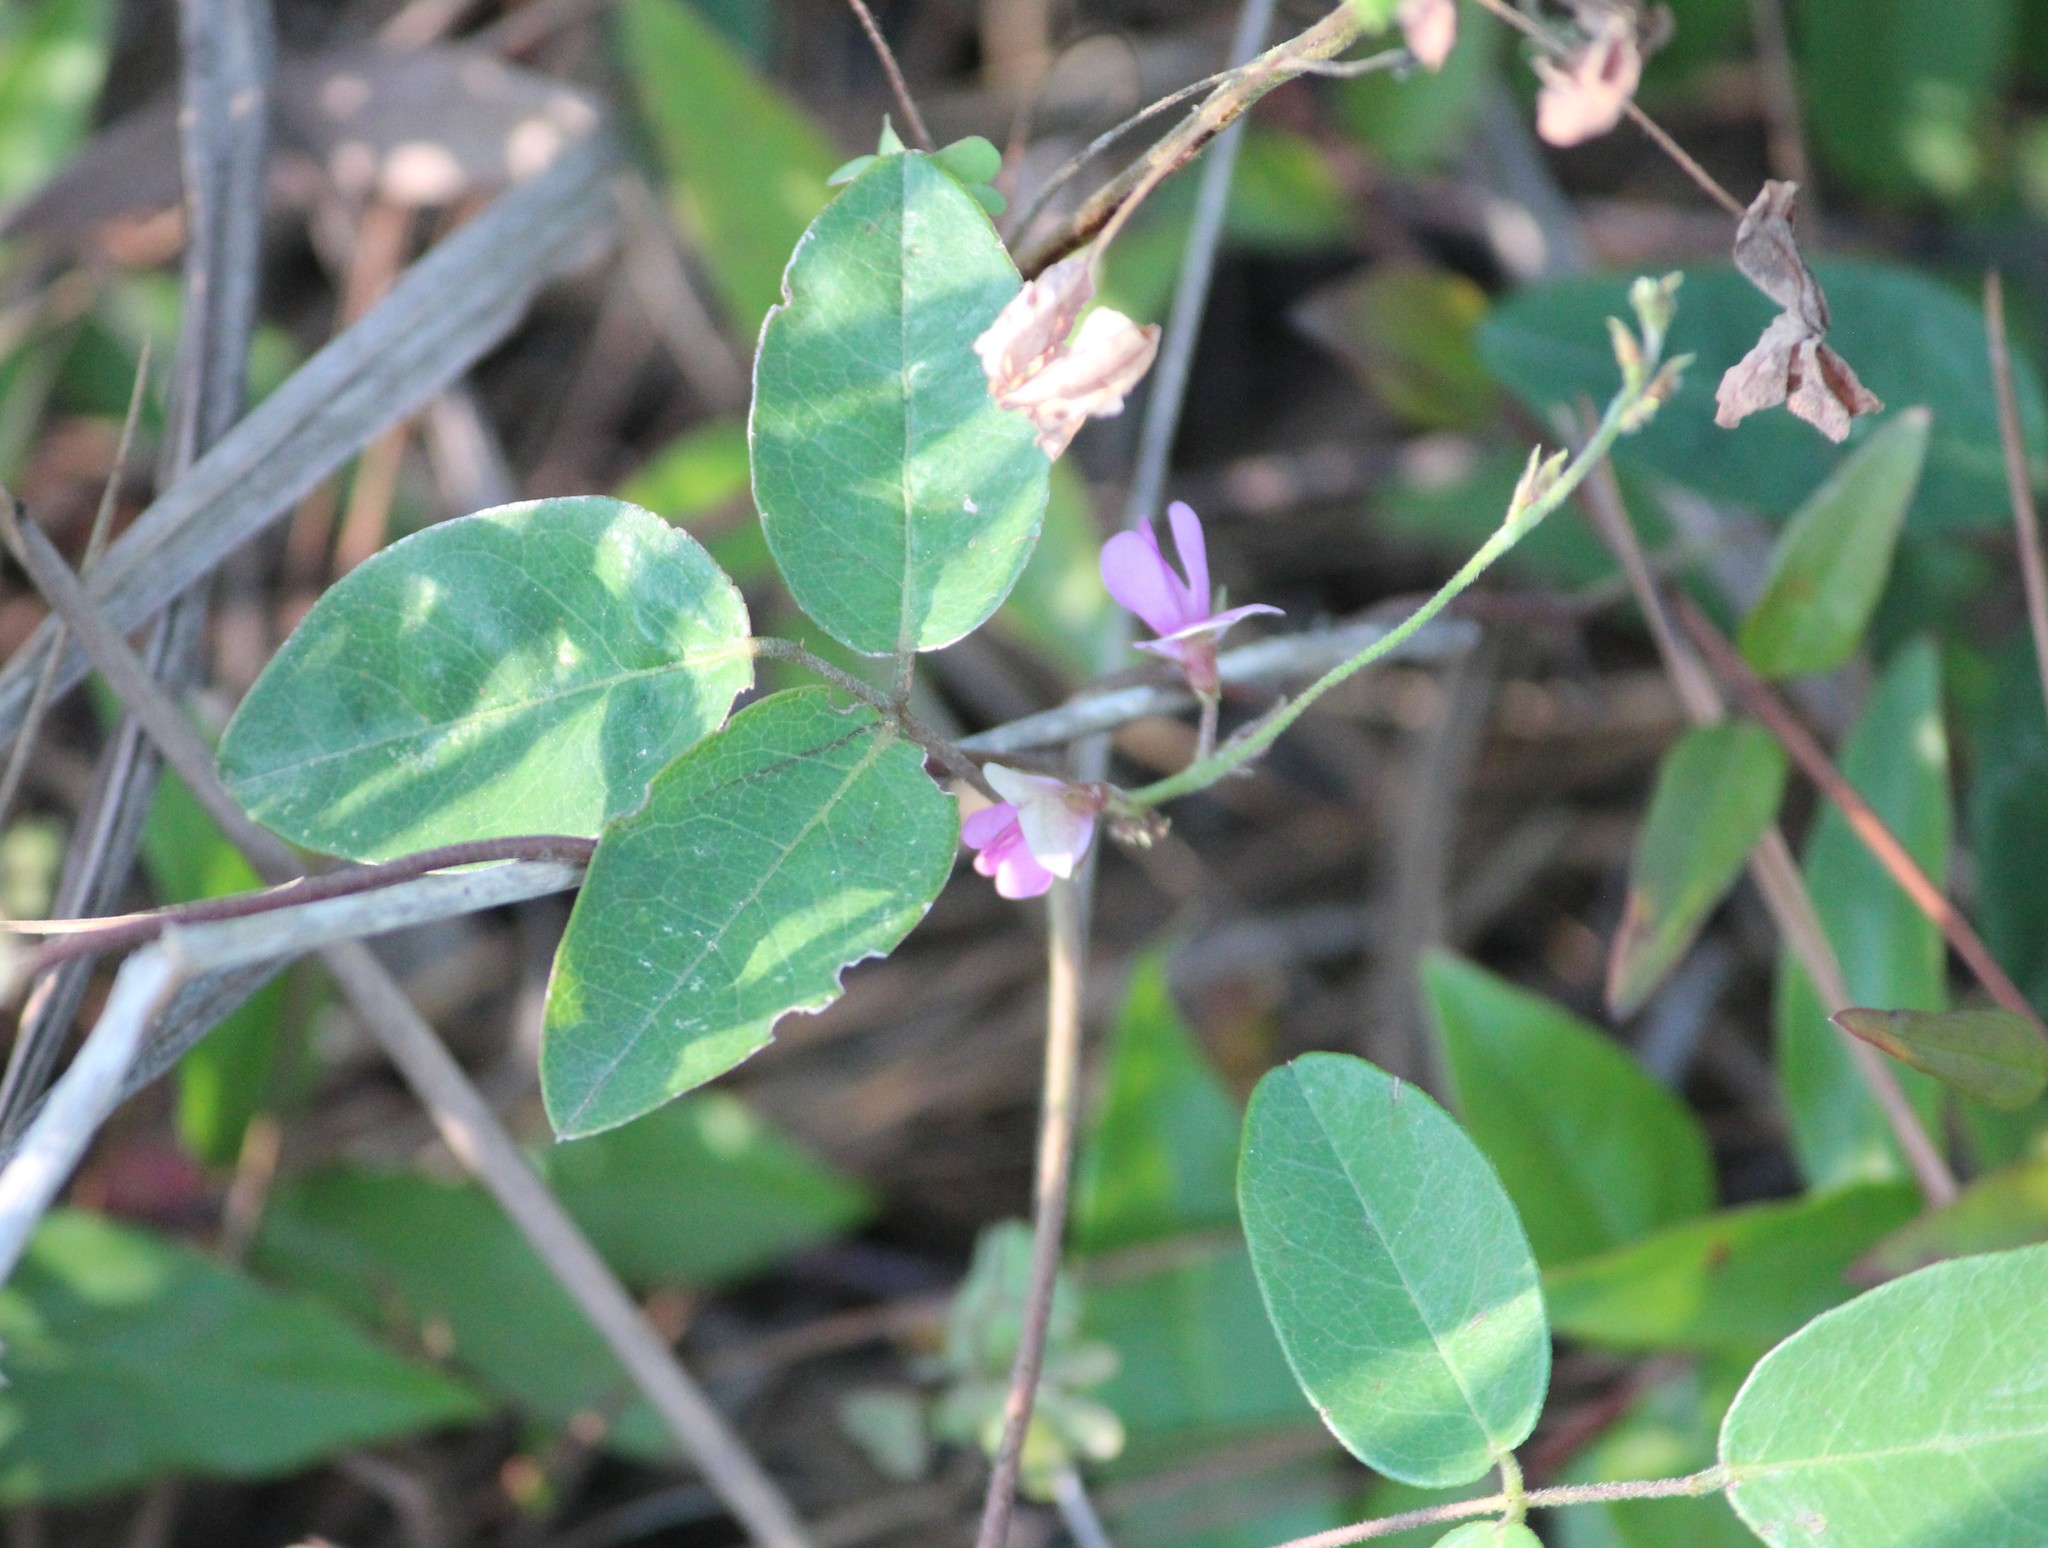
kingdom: Plantae
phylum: Tracheophyta
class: Magnoliopsida
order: Fabales
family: Fabaceae
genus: Galactia
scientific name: Galactia regularis
